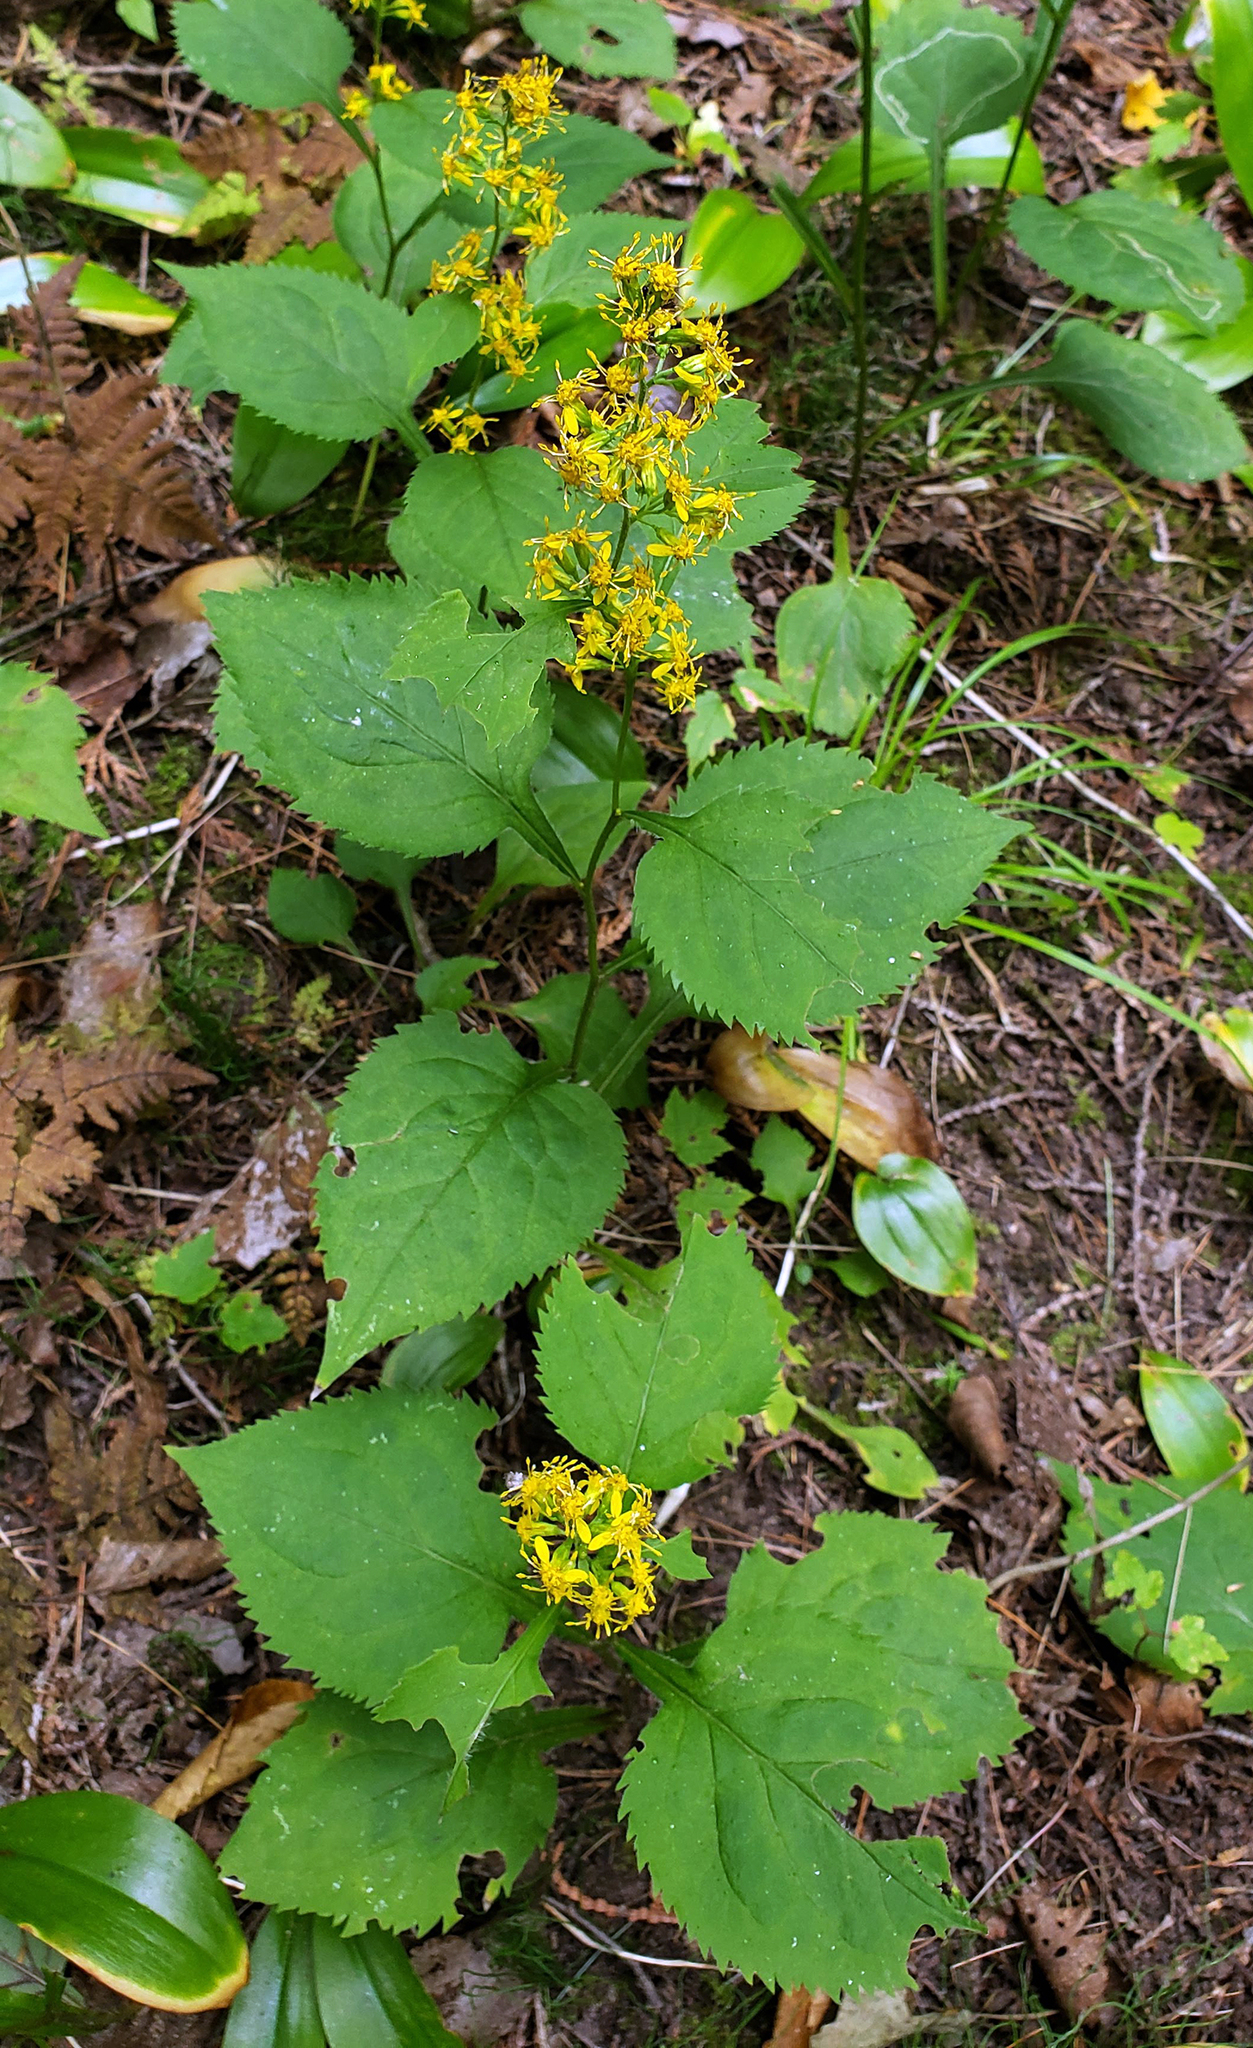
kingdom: Plantae
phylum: Tracheophyta
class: Magnoliopsida
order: Asterales
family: Asteraceae
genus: Solidago
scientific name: Solidago flexicaulis
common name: Zig-zag goldenrod
